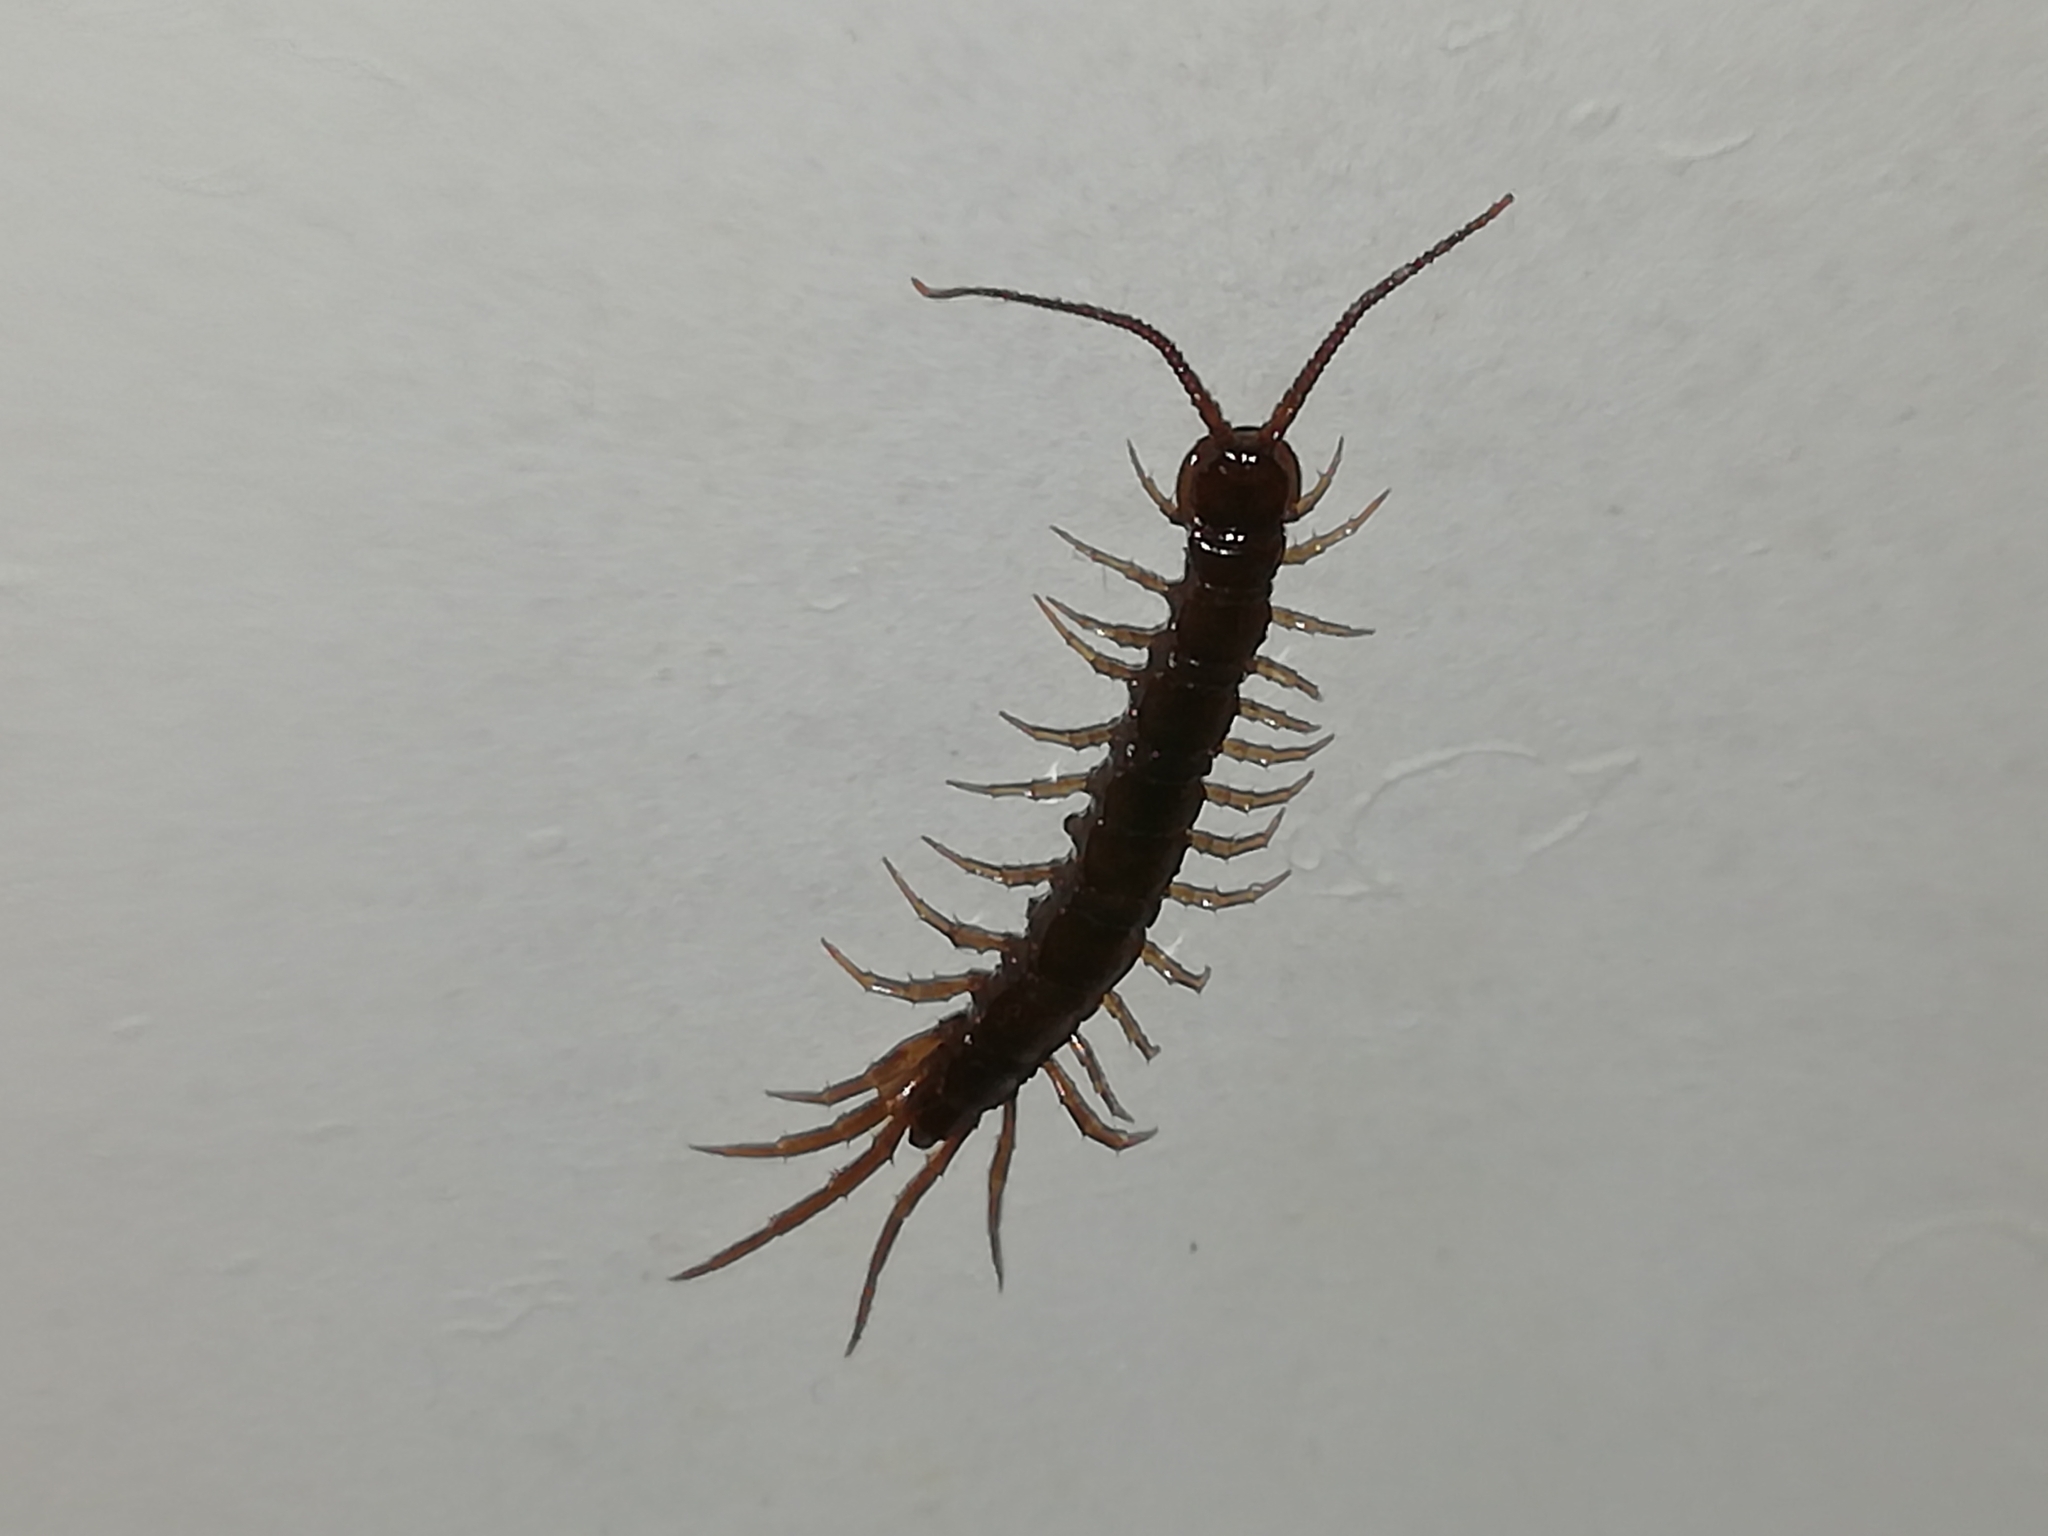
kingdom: Animalia
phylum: Arthropoda
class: Chilopoda
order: Lithobiomorpha
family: Lithobiidae
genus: Lithobius
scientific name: Lithobius forficatus
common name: Centipede
